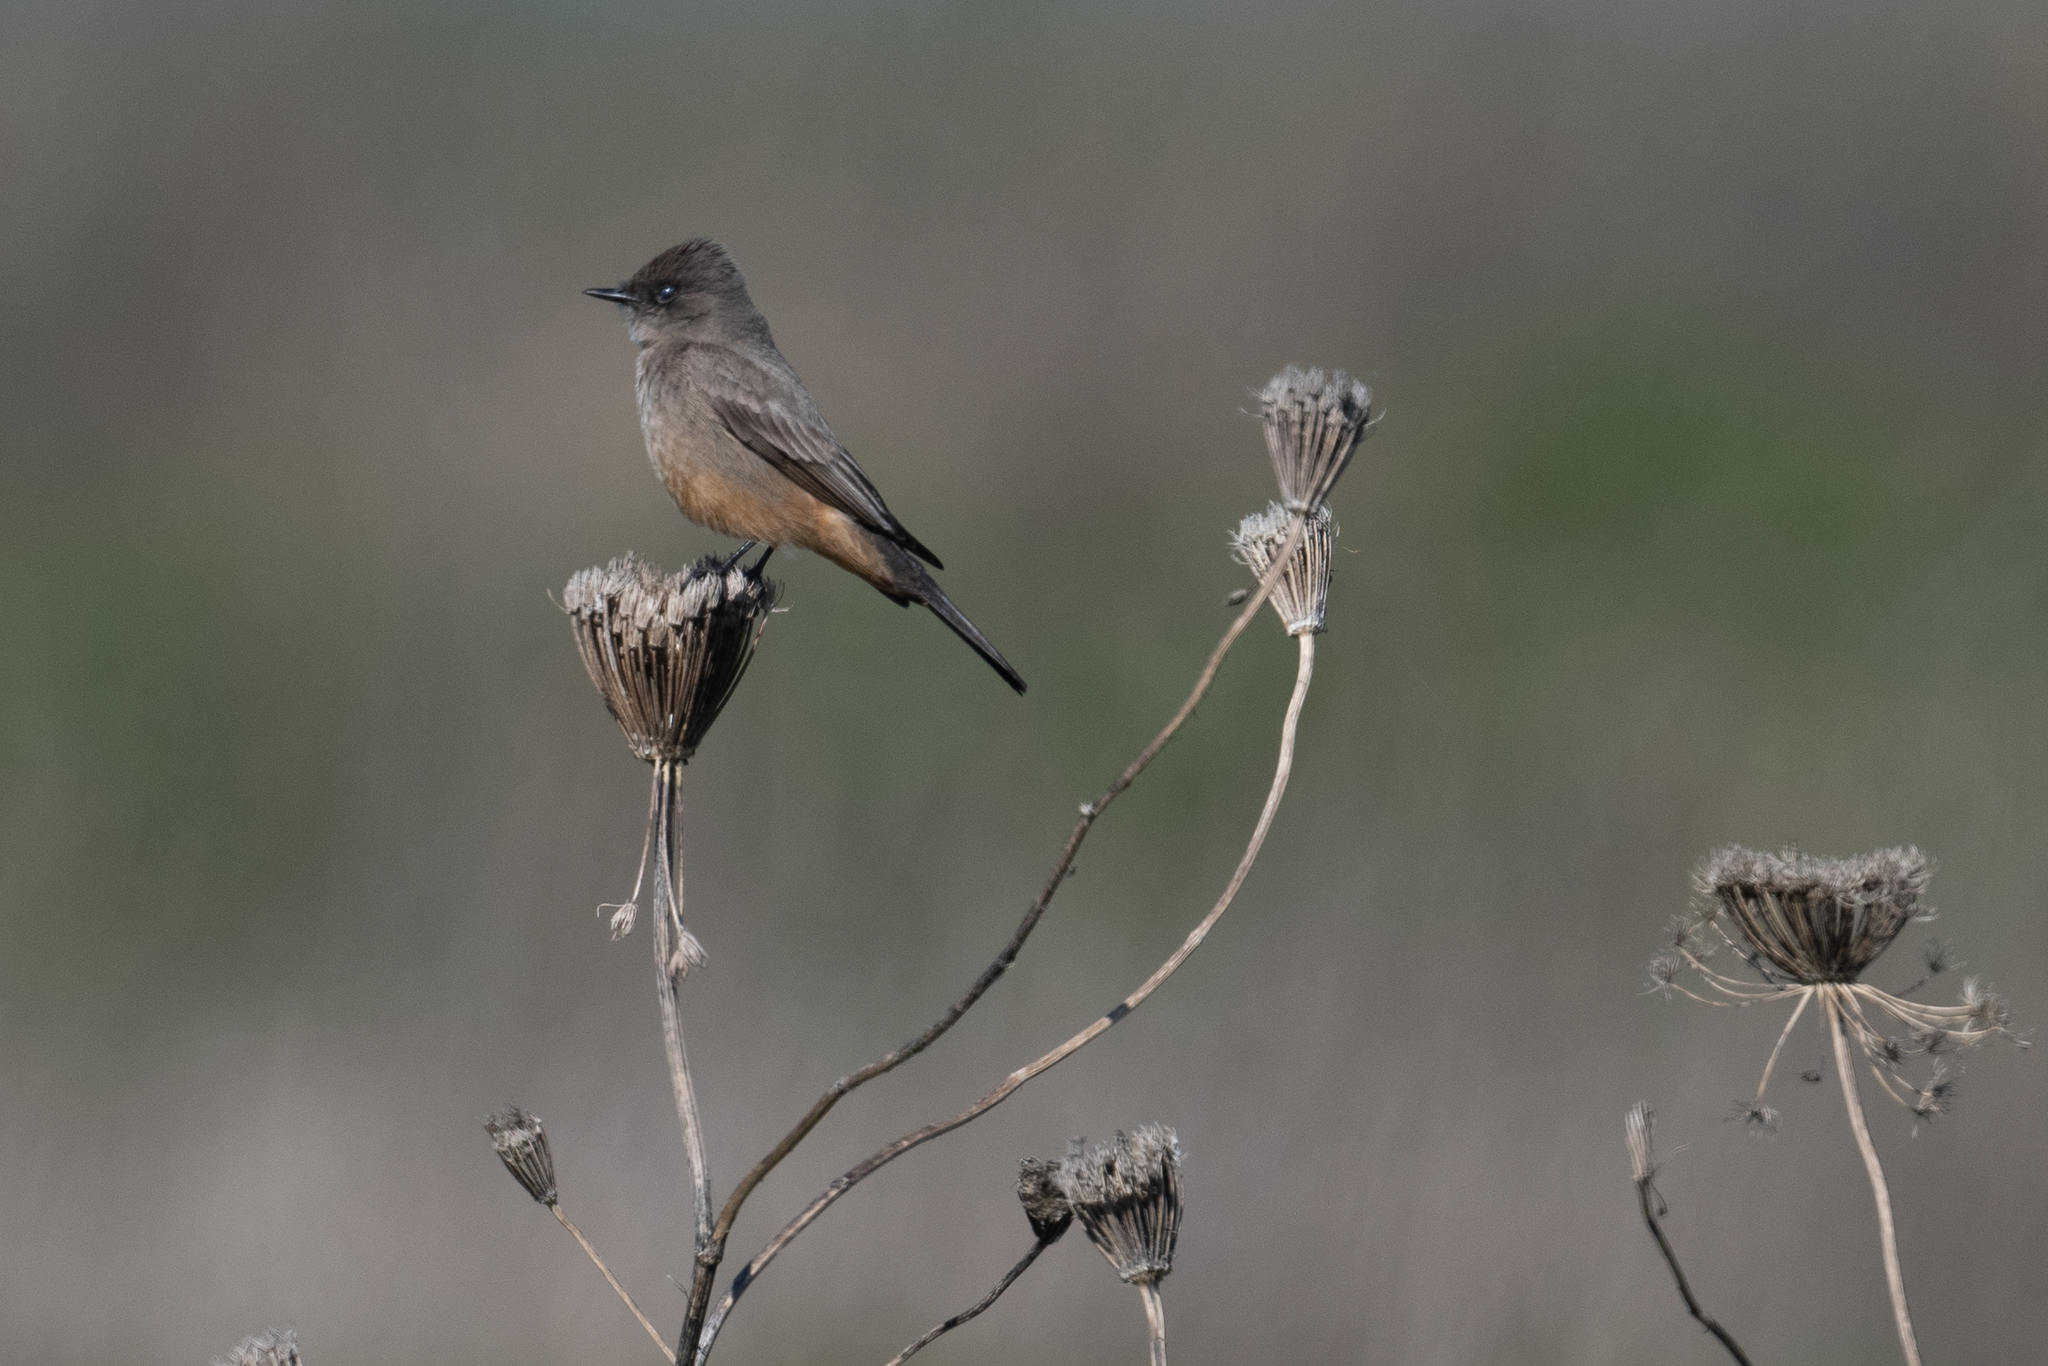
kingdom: Animalia
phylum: Chordata
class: Aves
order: Passeriformes
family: Tyrannidae
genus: Sayornis
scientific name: Sayornis saya
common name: Say's phoebe
